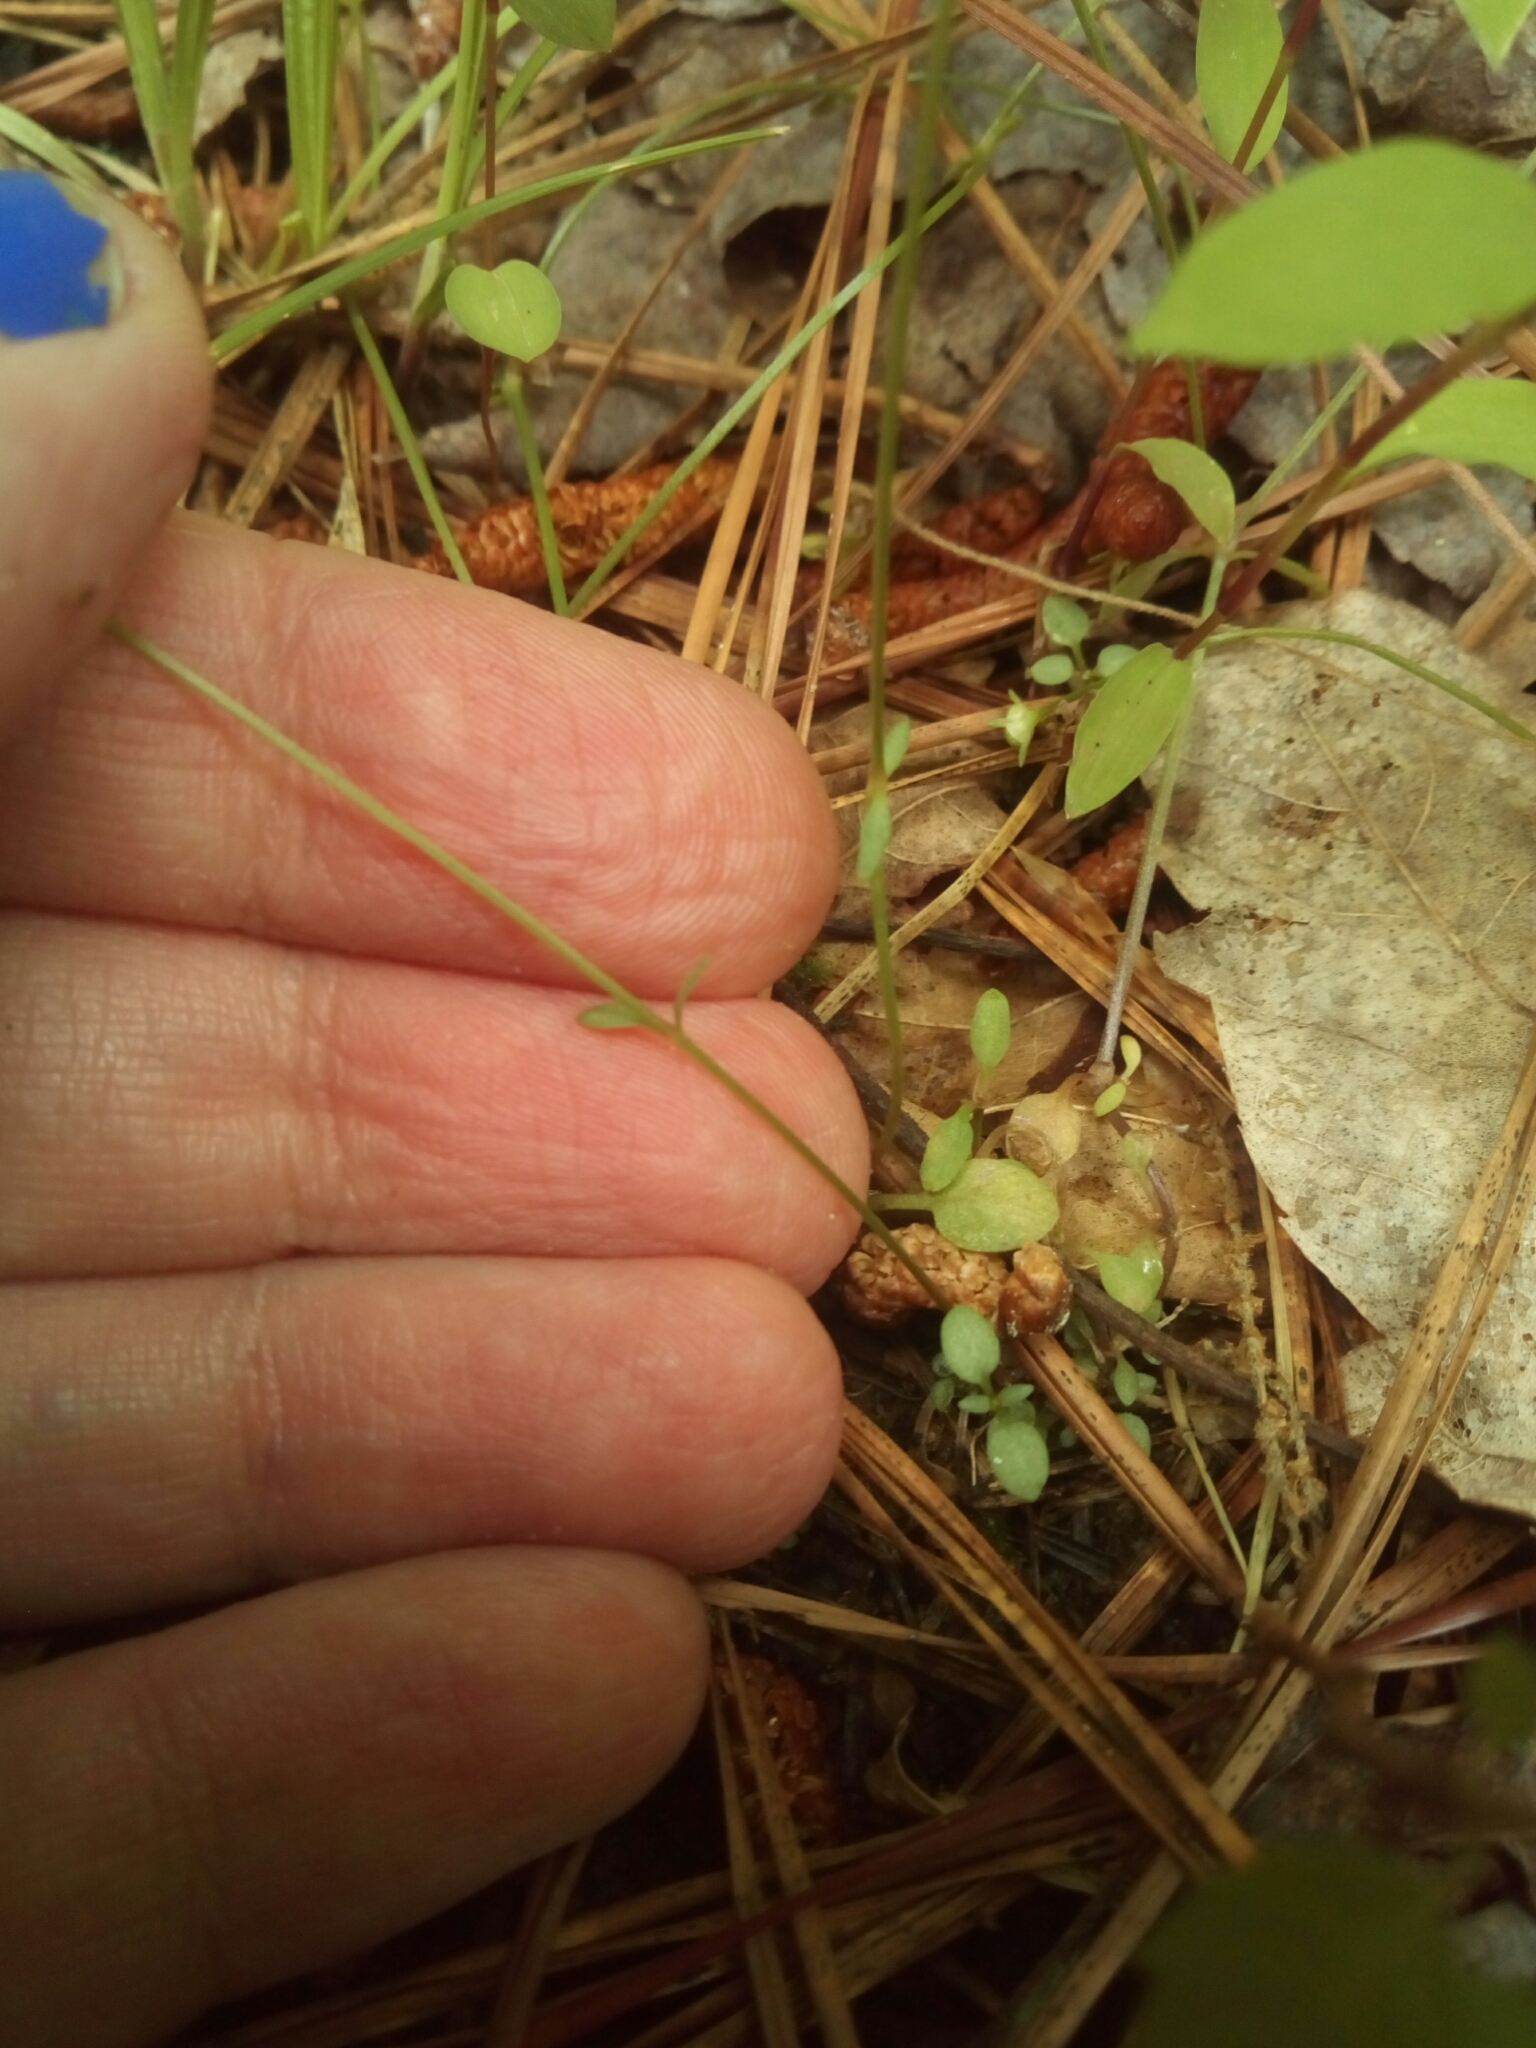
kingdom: Plantae
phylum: Tracheophyta
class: Magnoliopsida
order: Gentianales
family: Rubiaceae
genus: Houstonia
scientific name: Houstonia caerulea
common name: Bluets
